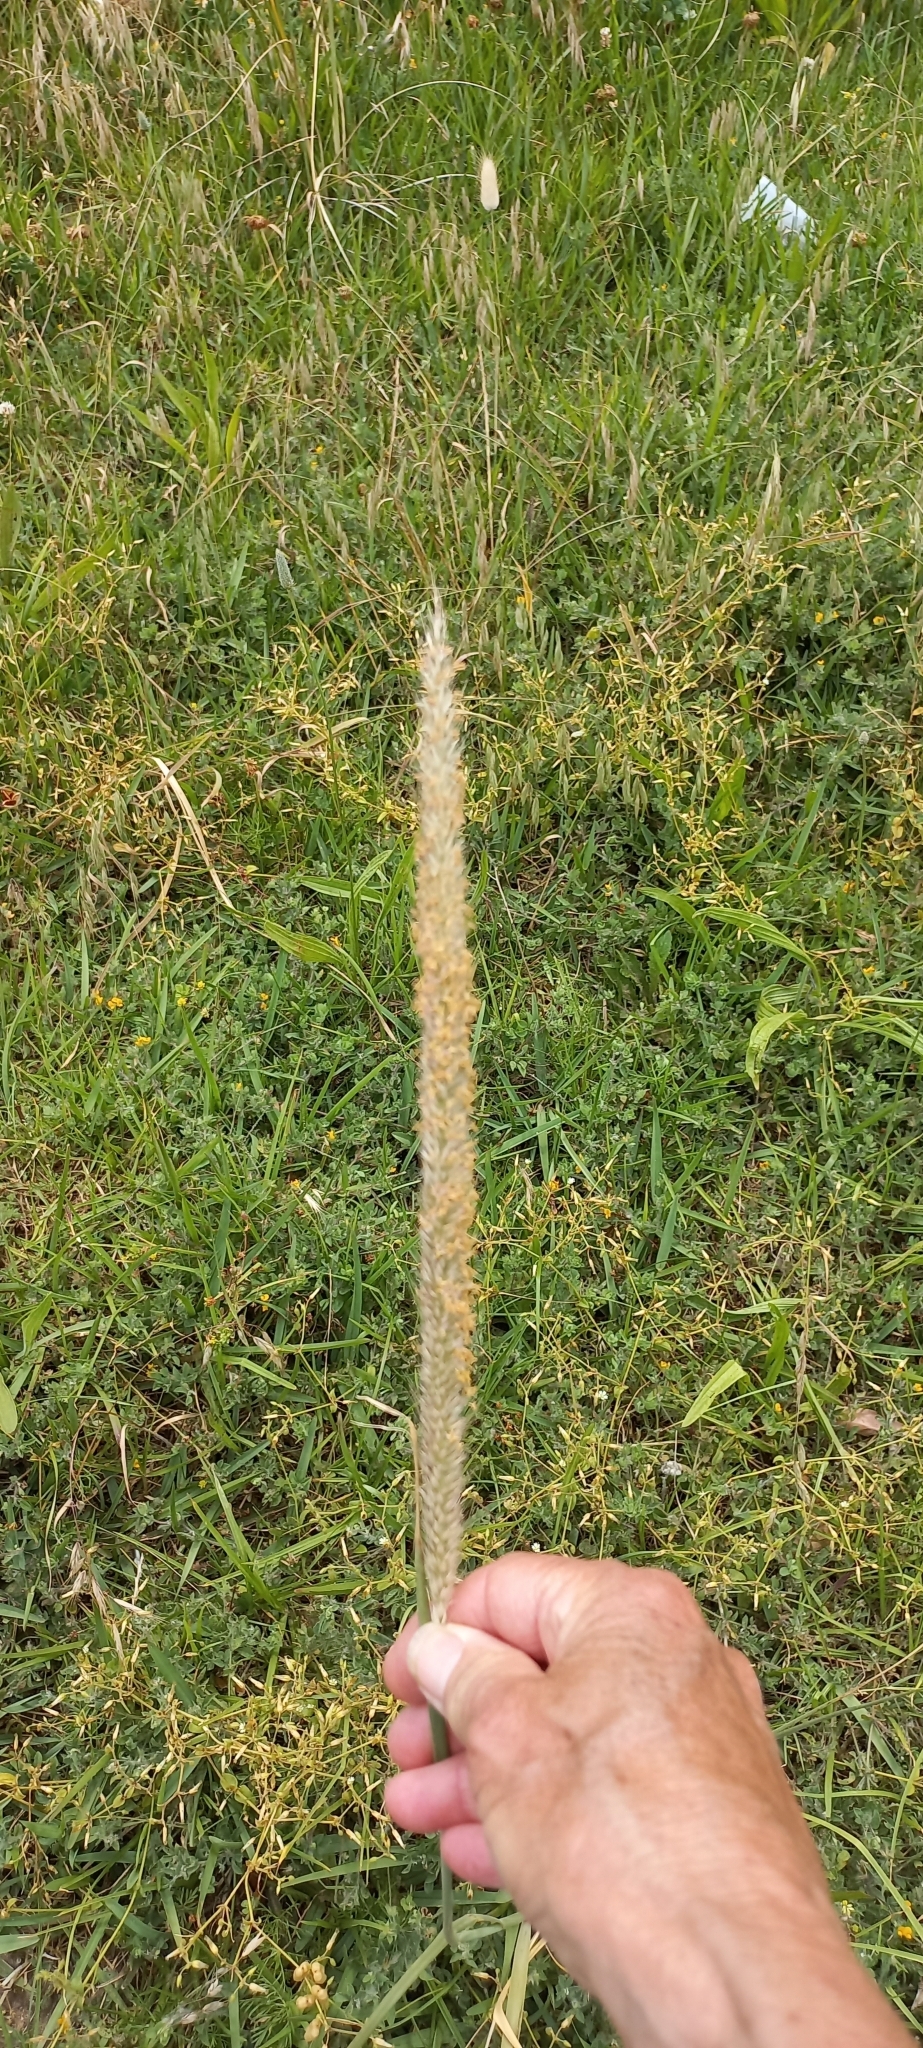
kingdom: Plantae
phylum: Tracheophyta
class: Liliopsida
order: Poales
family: Poaceae
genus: Cenchrus
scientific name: Cenchrus caudatus
